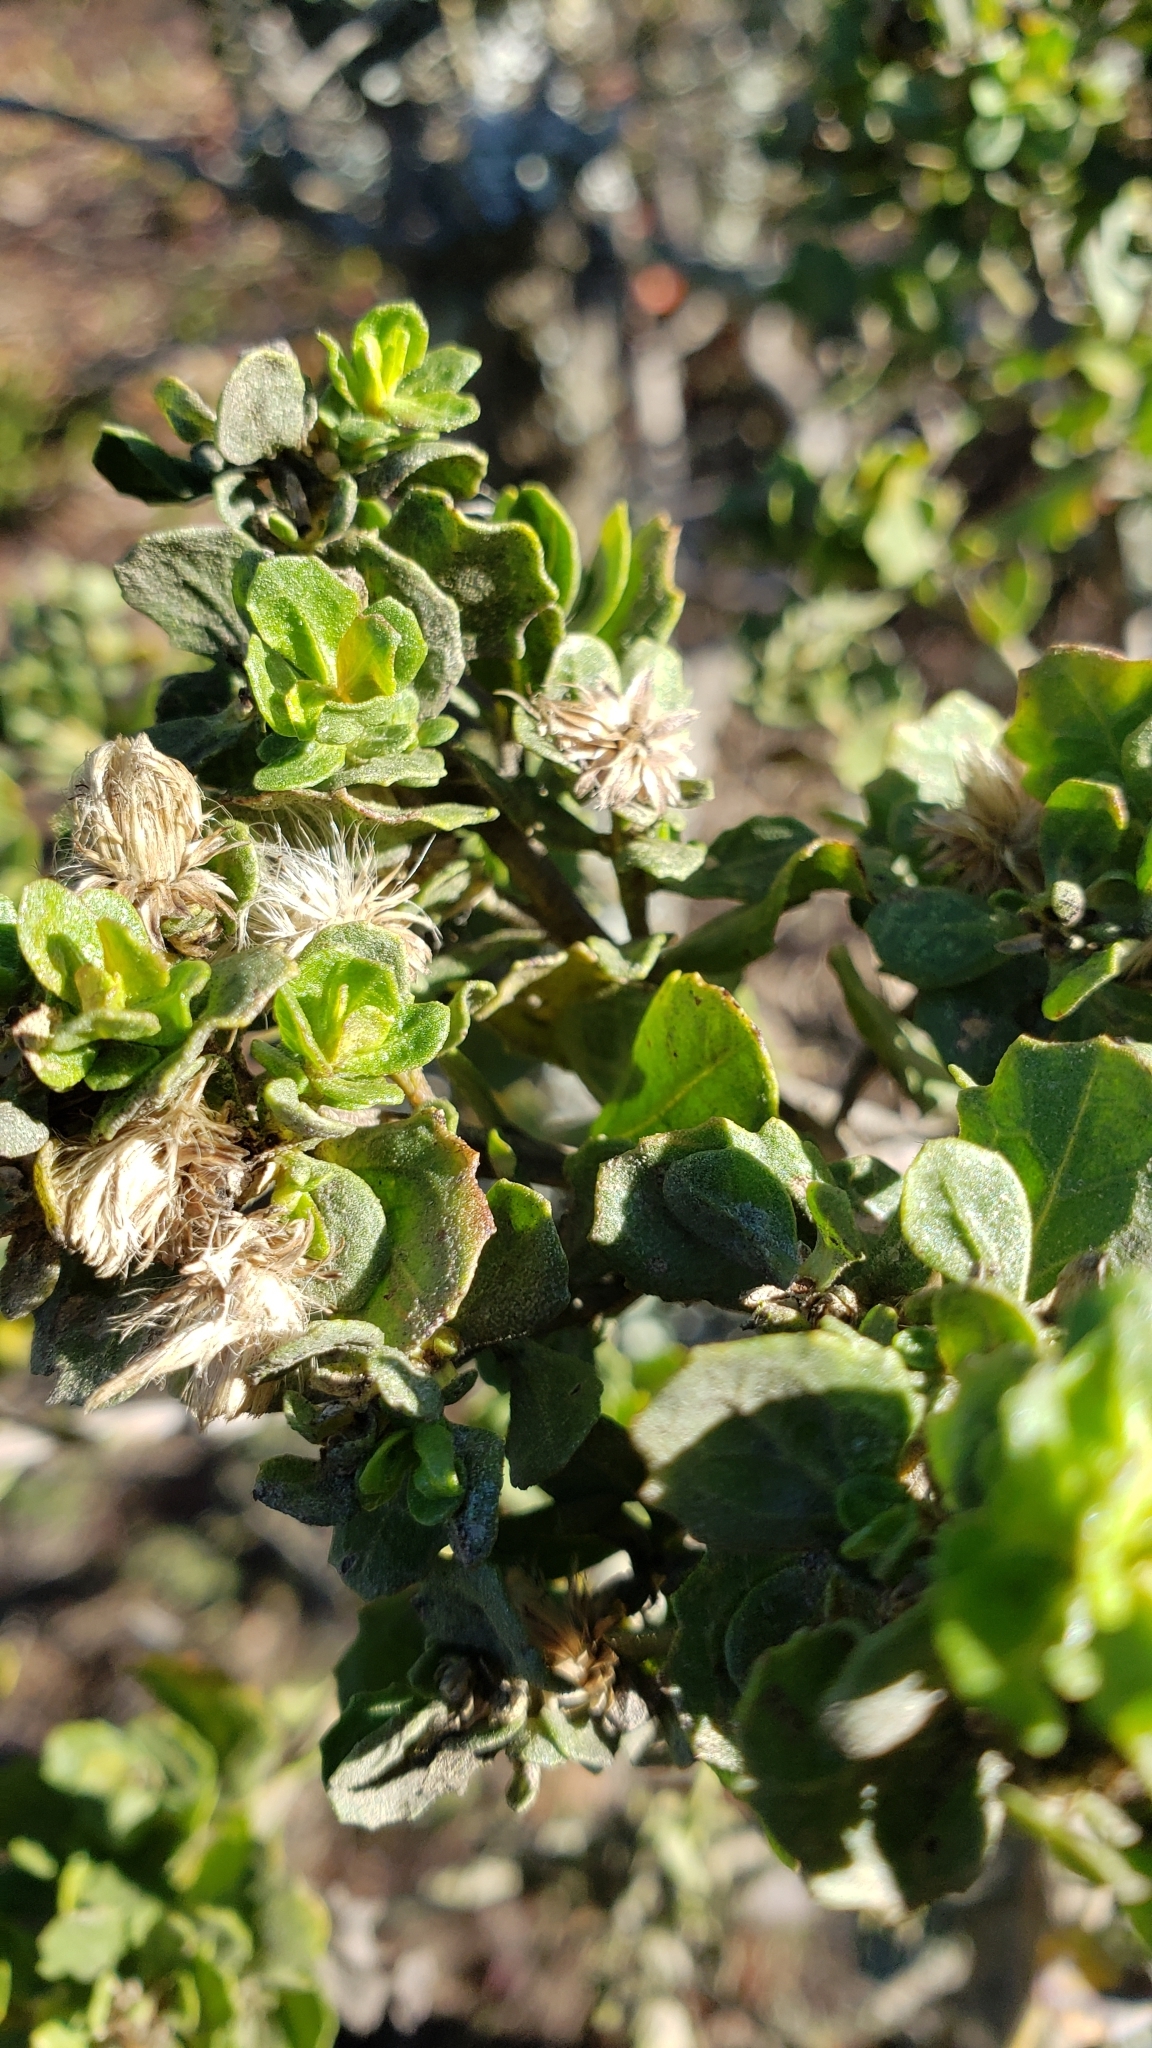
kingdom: Plantae
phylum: Tracheophyta
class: Magnoliopsida
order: Asterales
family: Asteraceae
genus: Baccharis
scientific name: Baccharis pilularis
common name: Coyotebrush
